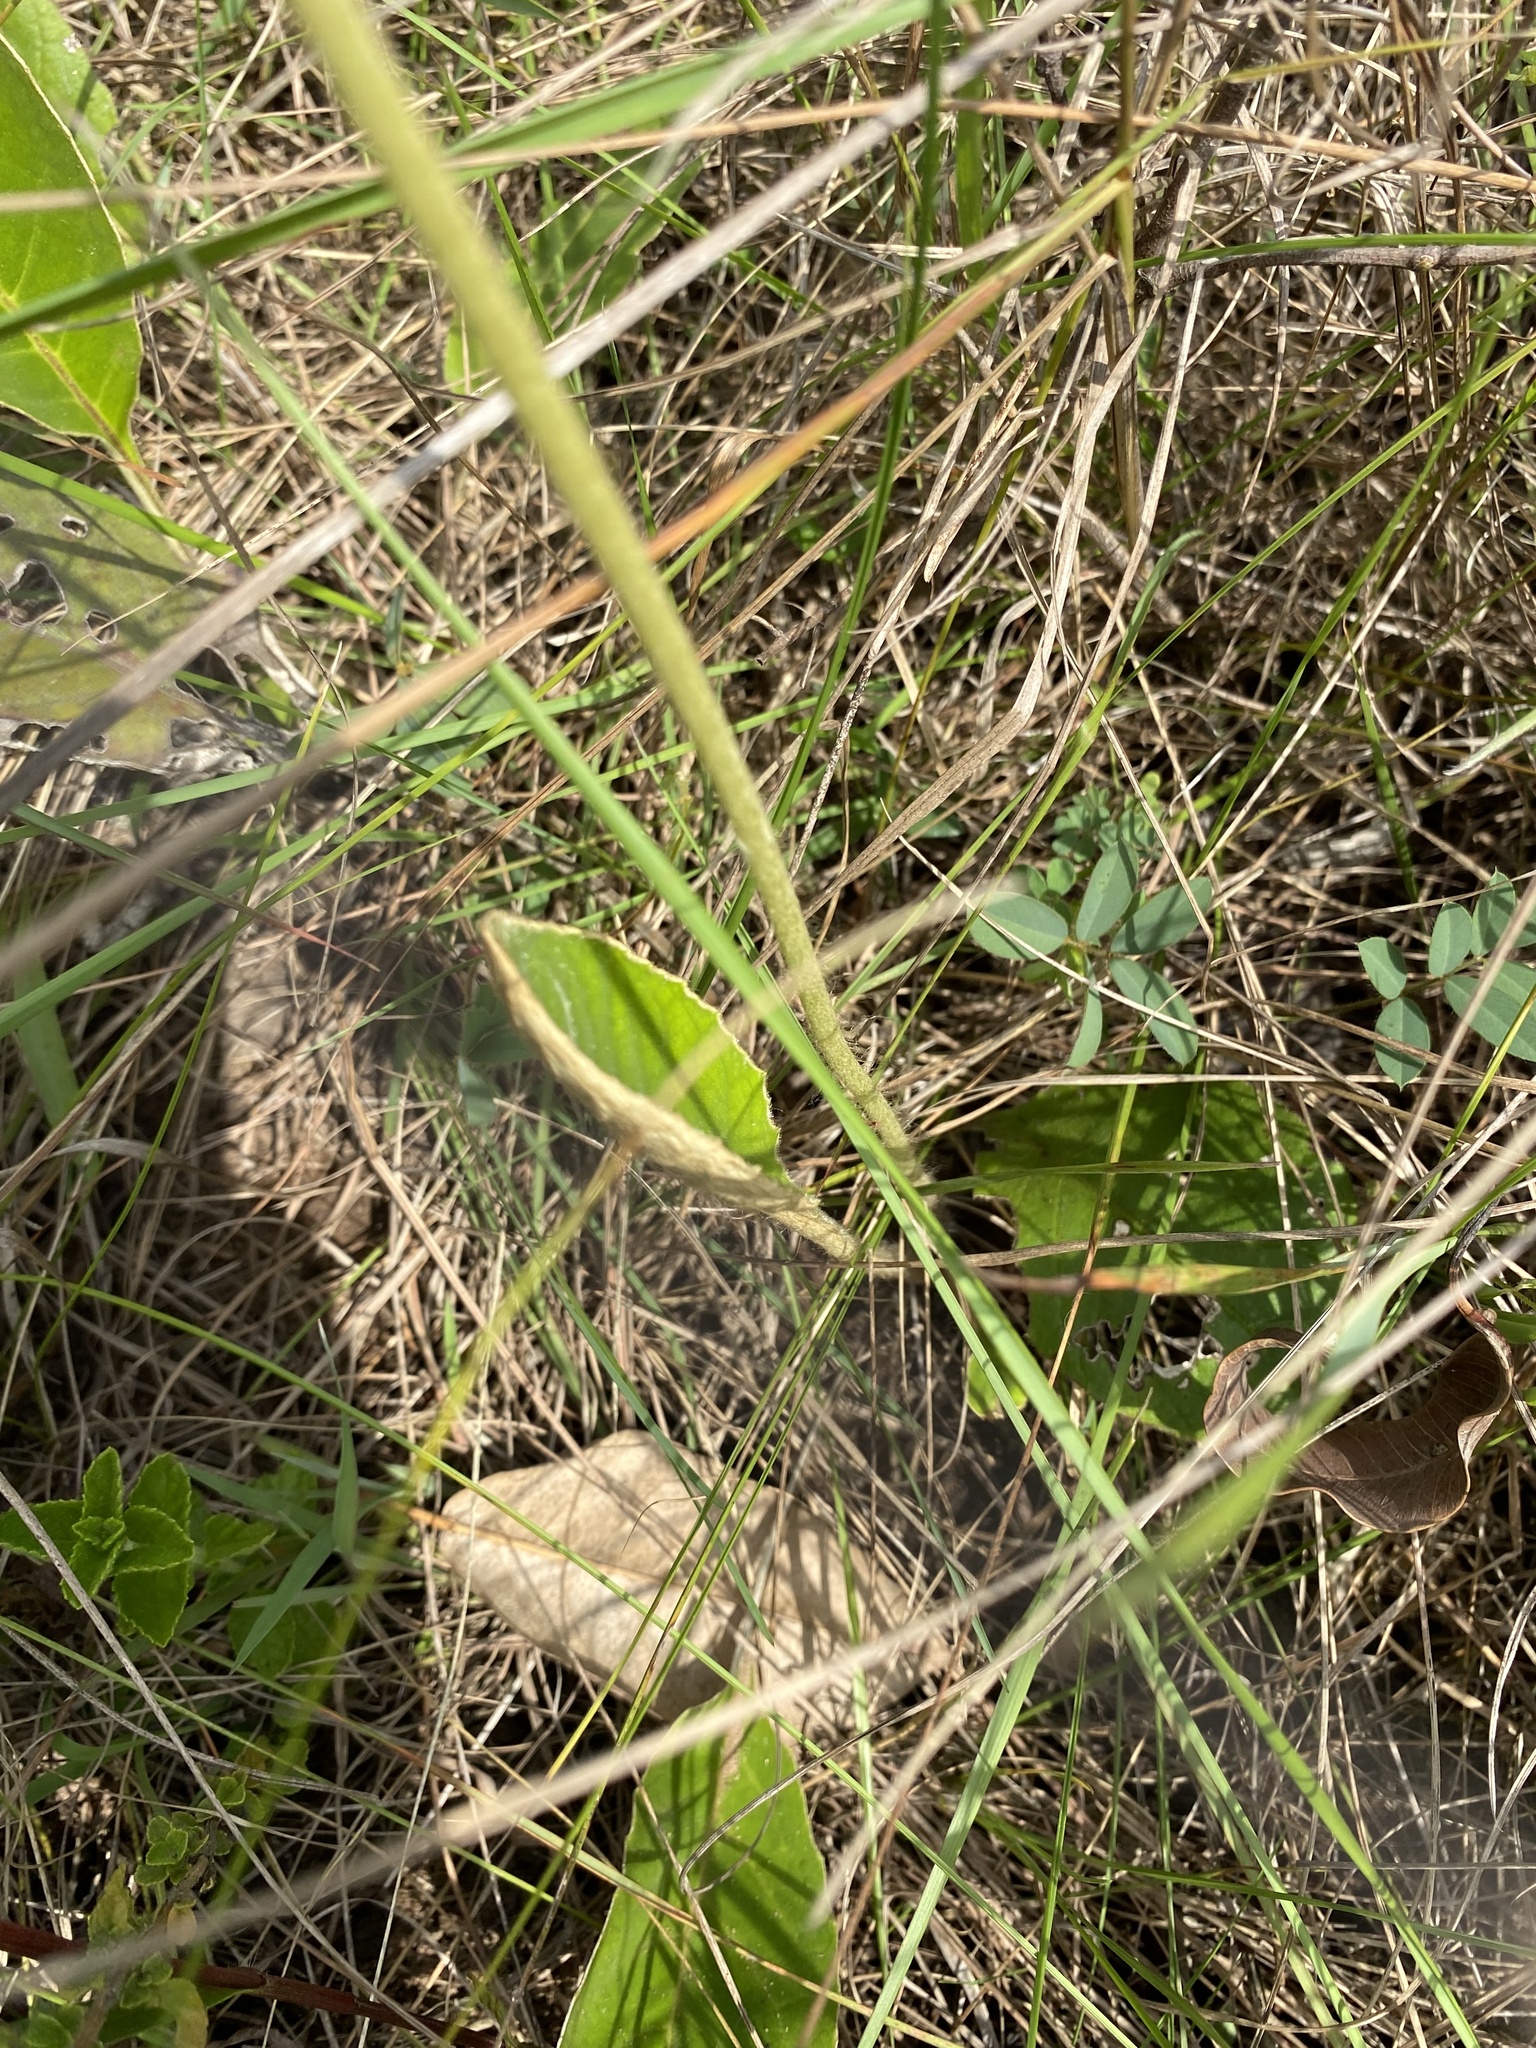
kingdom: Plantae
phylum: Tracheophyta
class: Magnoliopsida
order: Asterales
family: Asteraceae
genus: Gerbera
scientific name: Gerbera ambigua
